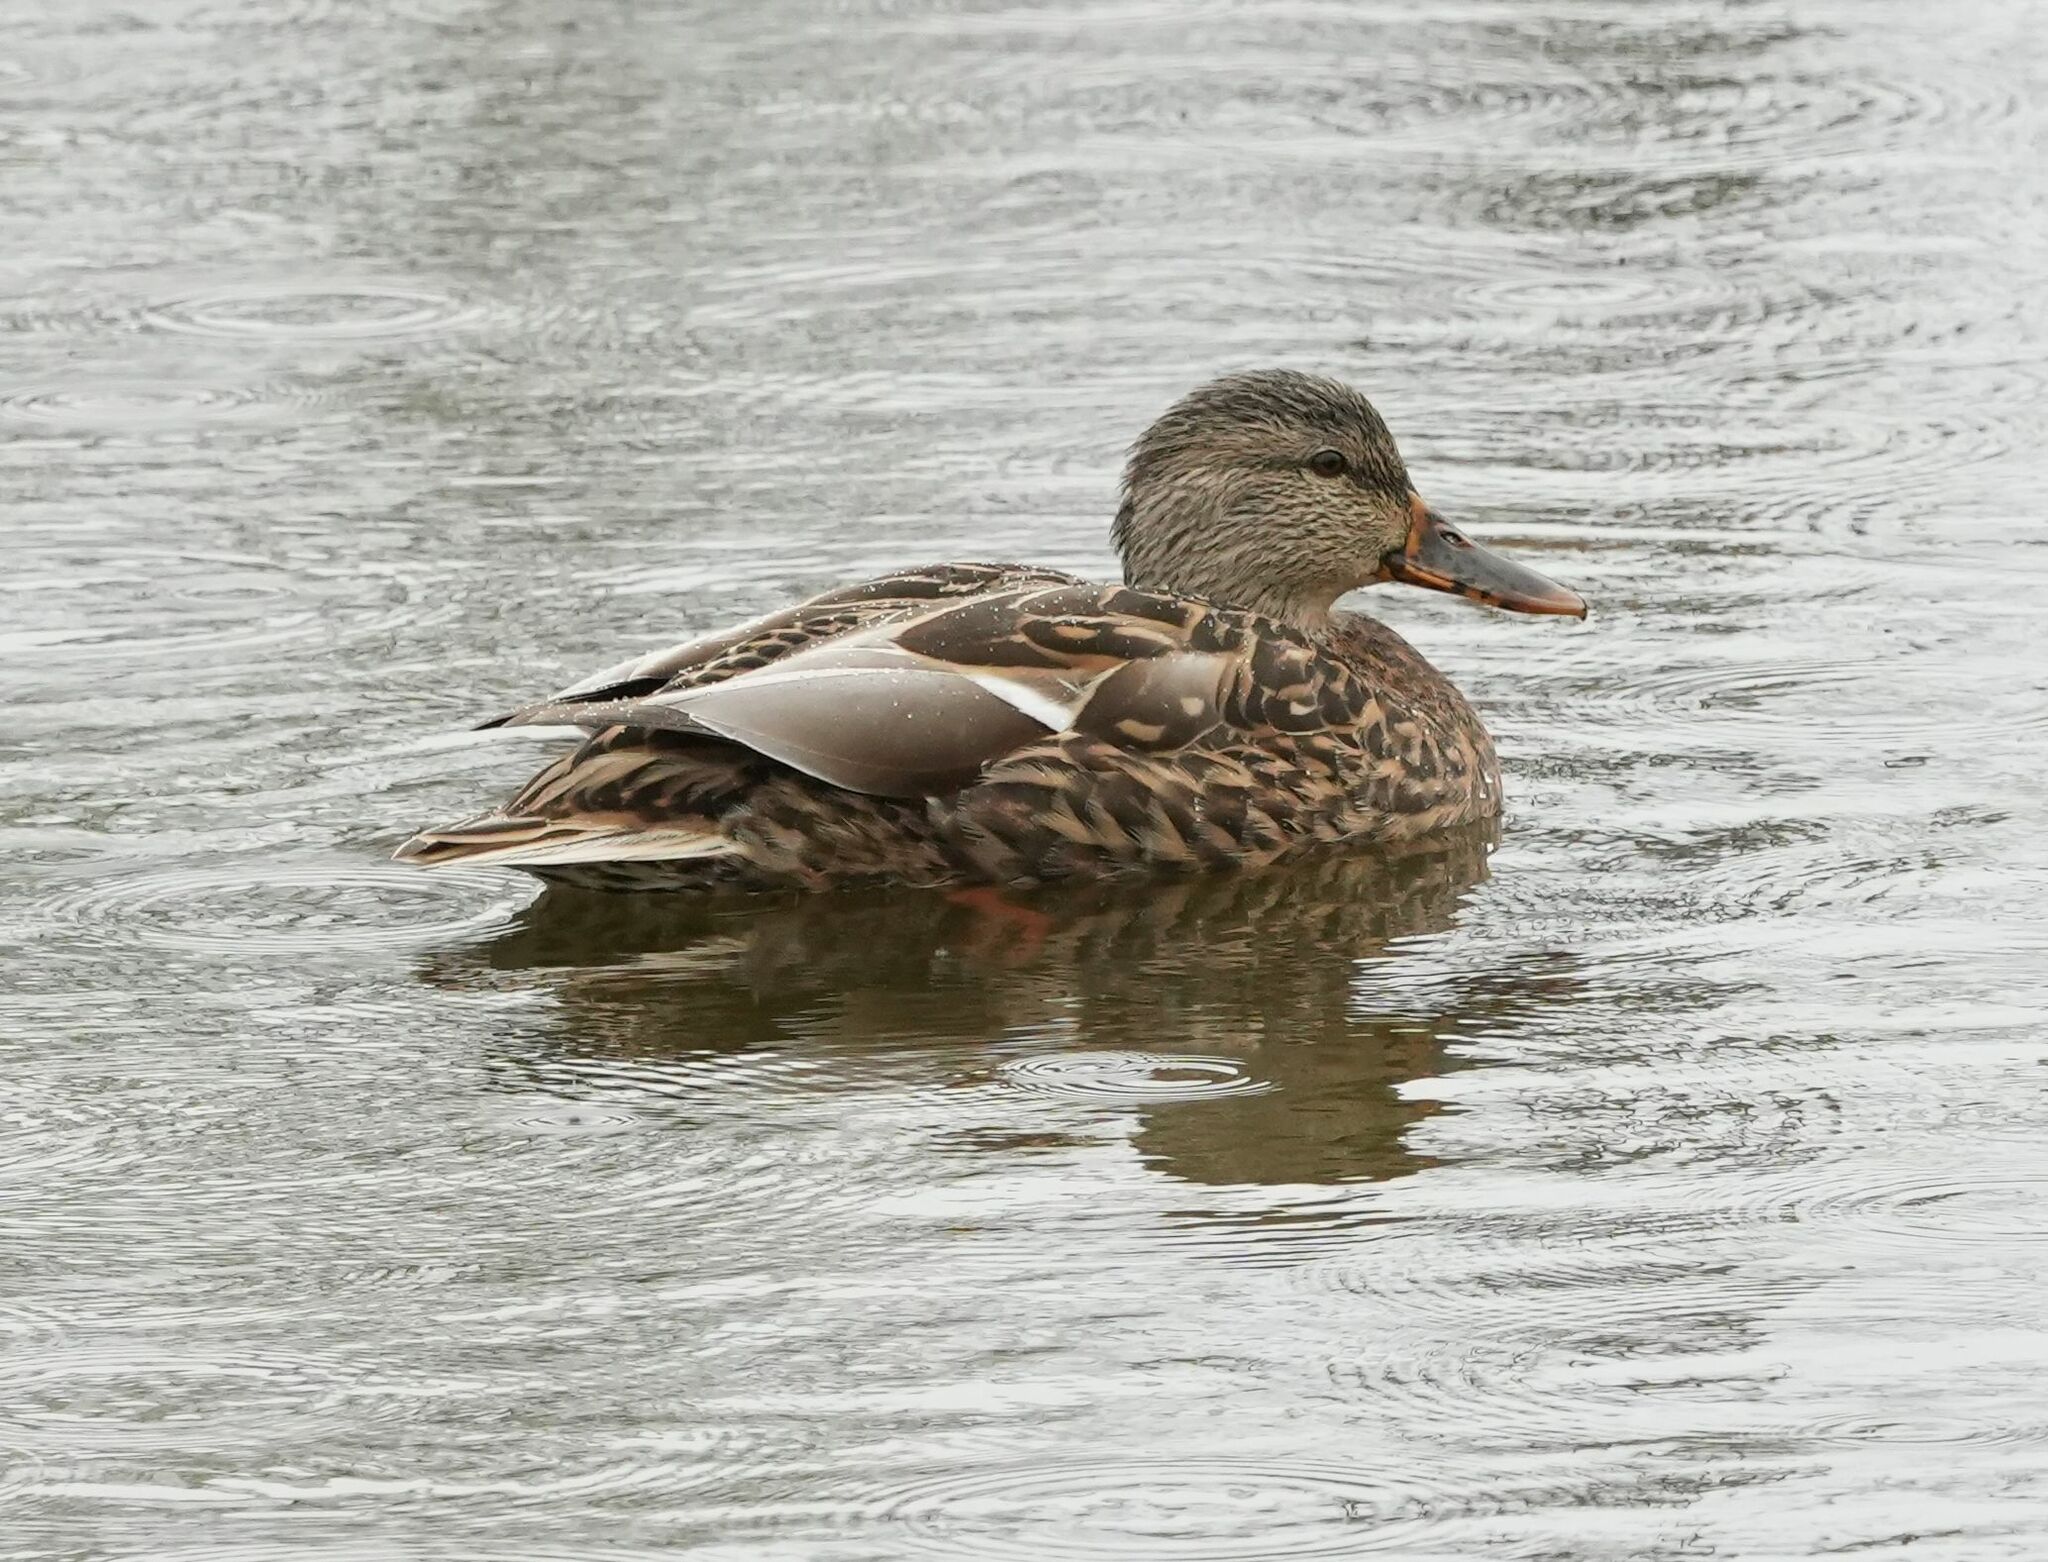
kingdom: Animalia
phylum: Chordata
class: Aves
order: Anseriformes
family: Anatidae
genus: Anas
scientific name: Anas platyrhynchos
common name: Mallard
